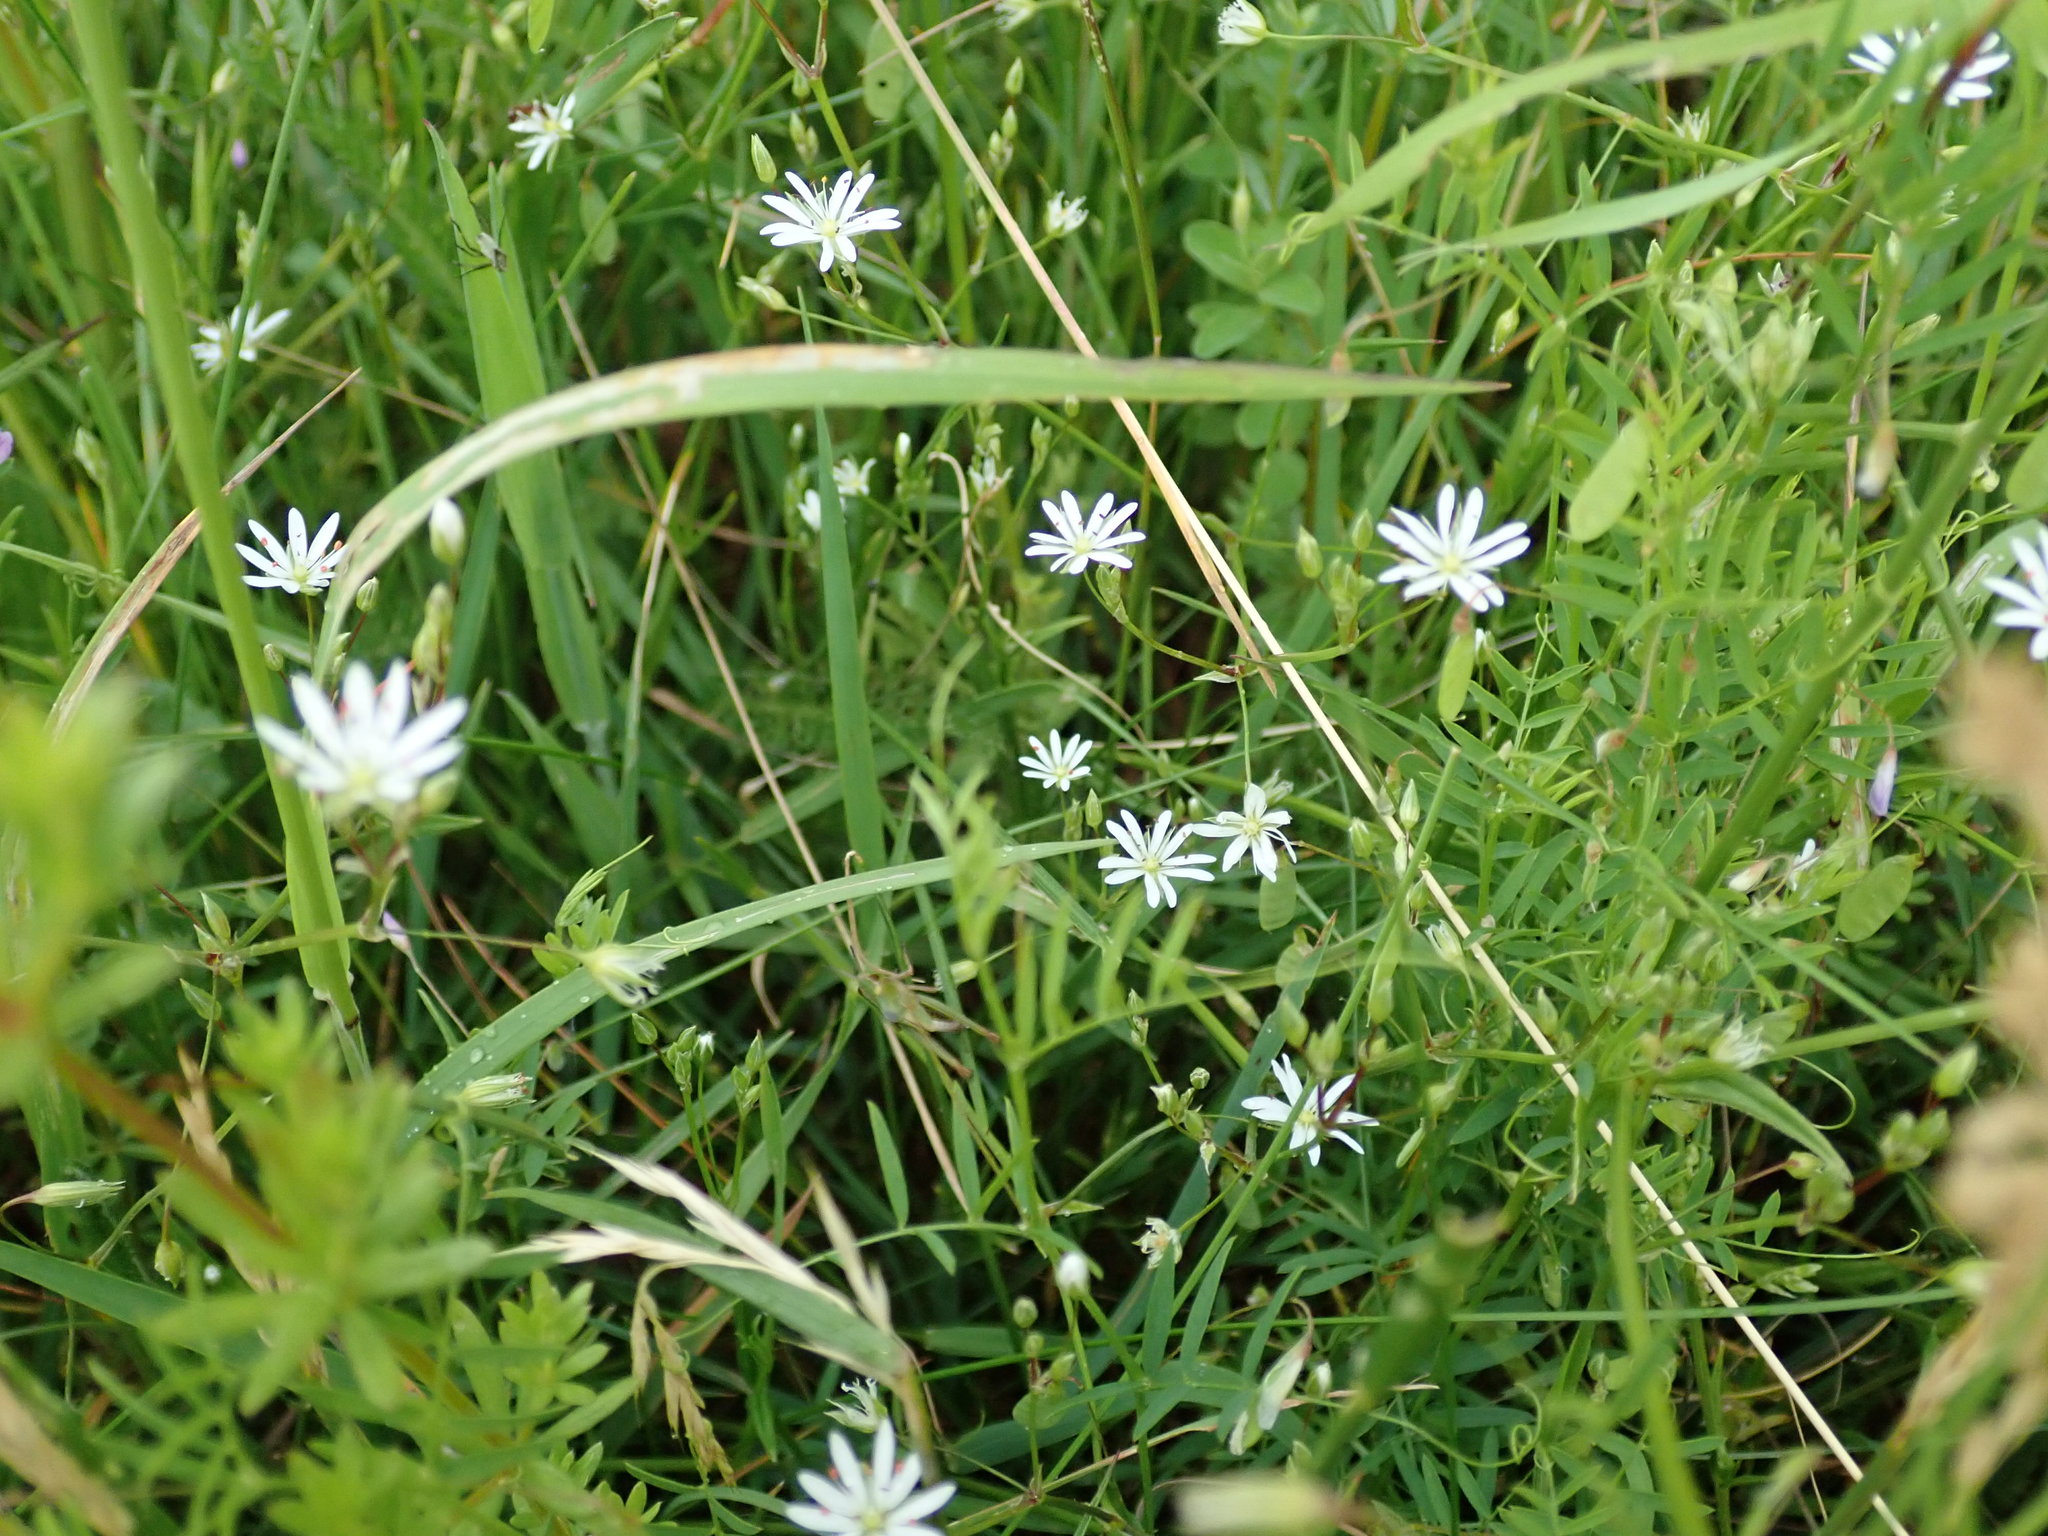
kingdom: Plantae
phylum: Tracheophyta
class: Magnoliopsida
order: Caryophyllales
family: Caryophyllaceae
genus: Stellaria
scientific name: Stellaria graminea
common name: Grass-like starwort
